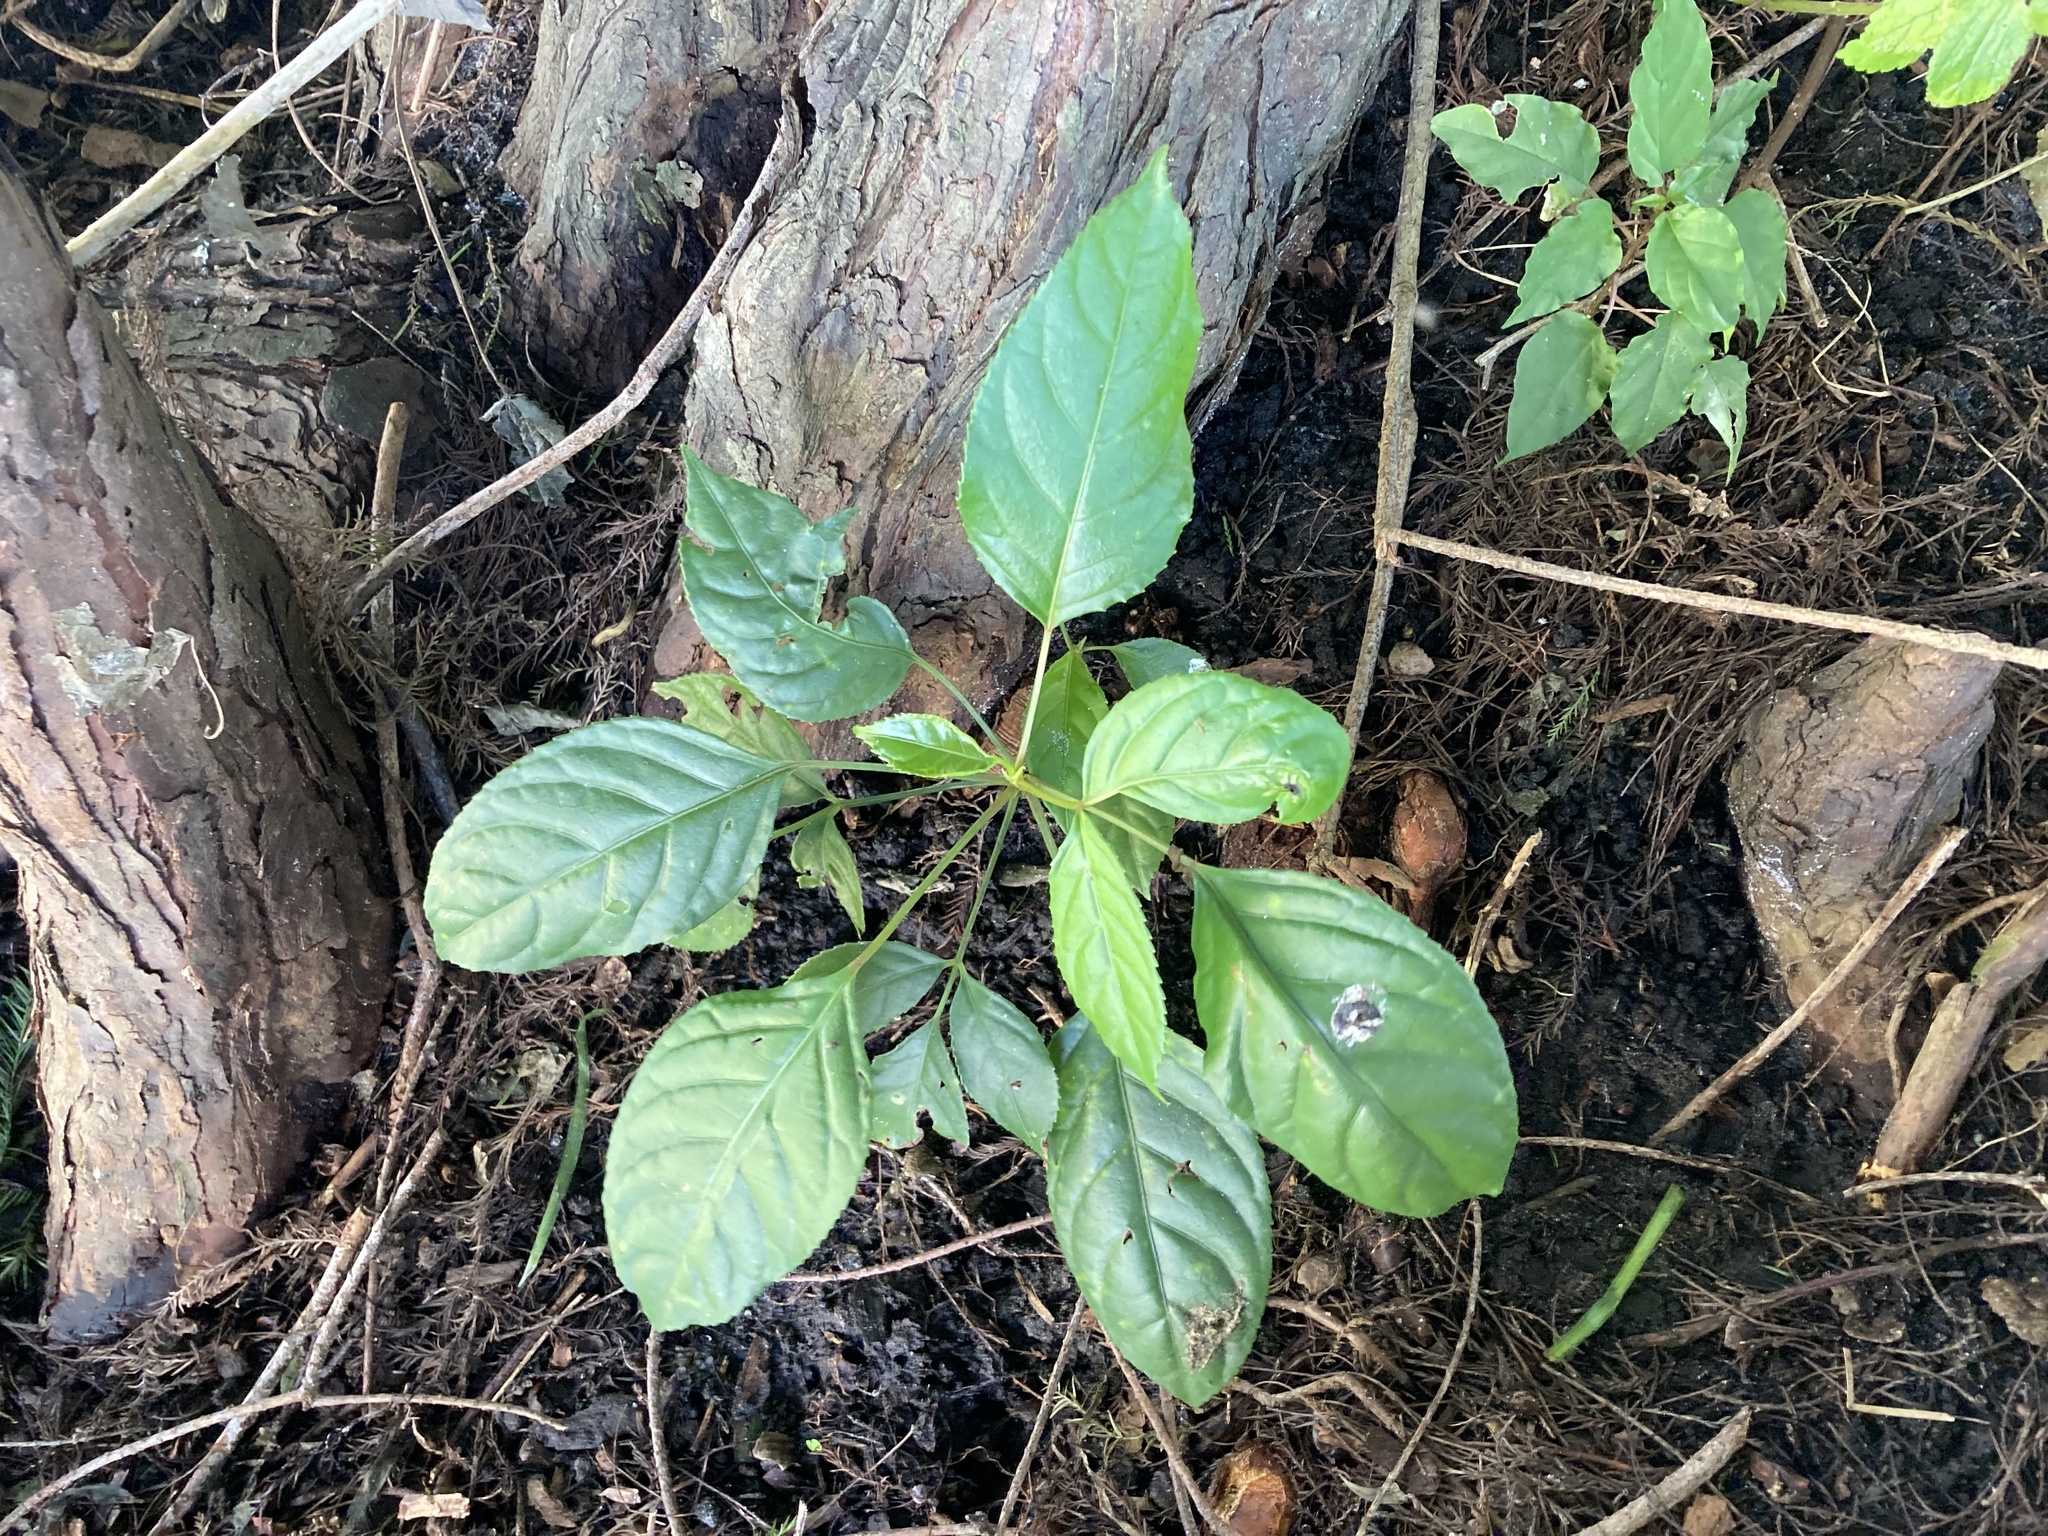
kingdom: Plantae
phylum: Tracheophyta
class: Magnoliopsida
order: Malpighiales
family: Phyllanthaceae
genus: Bischofia
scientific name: Bischofia javanica
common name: Javanese bishopwood
